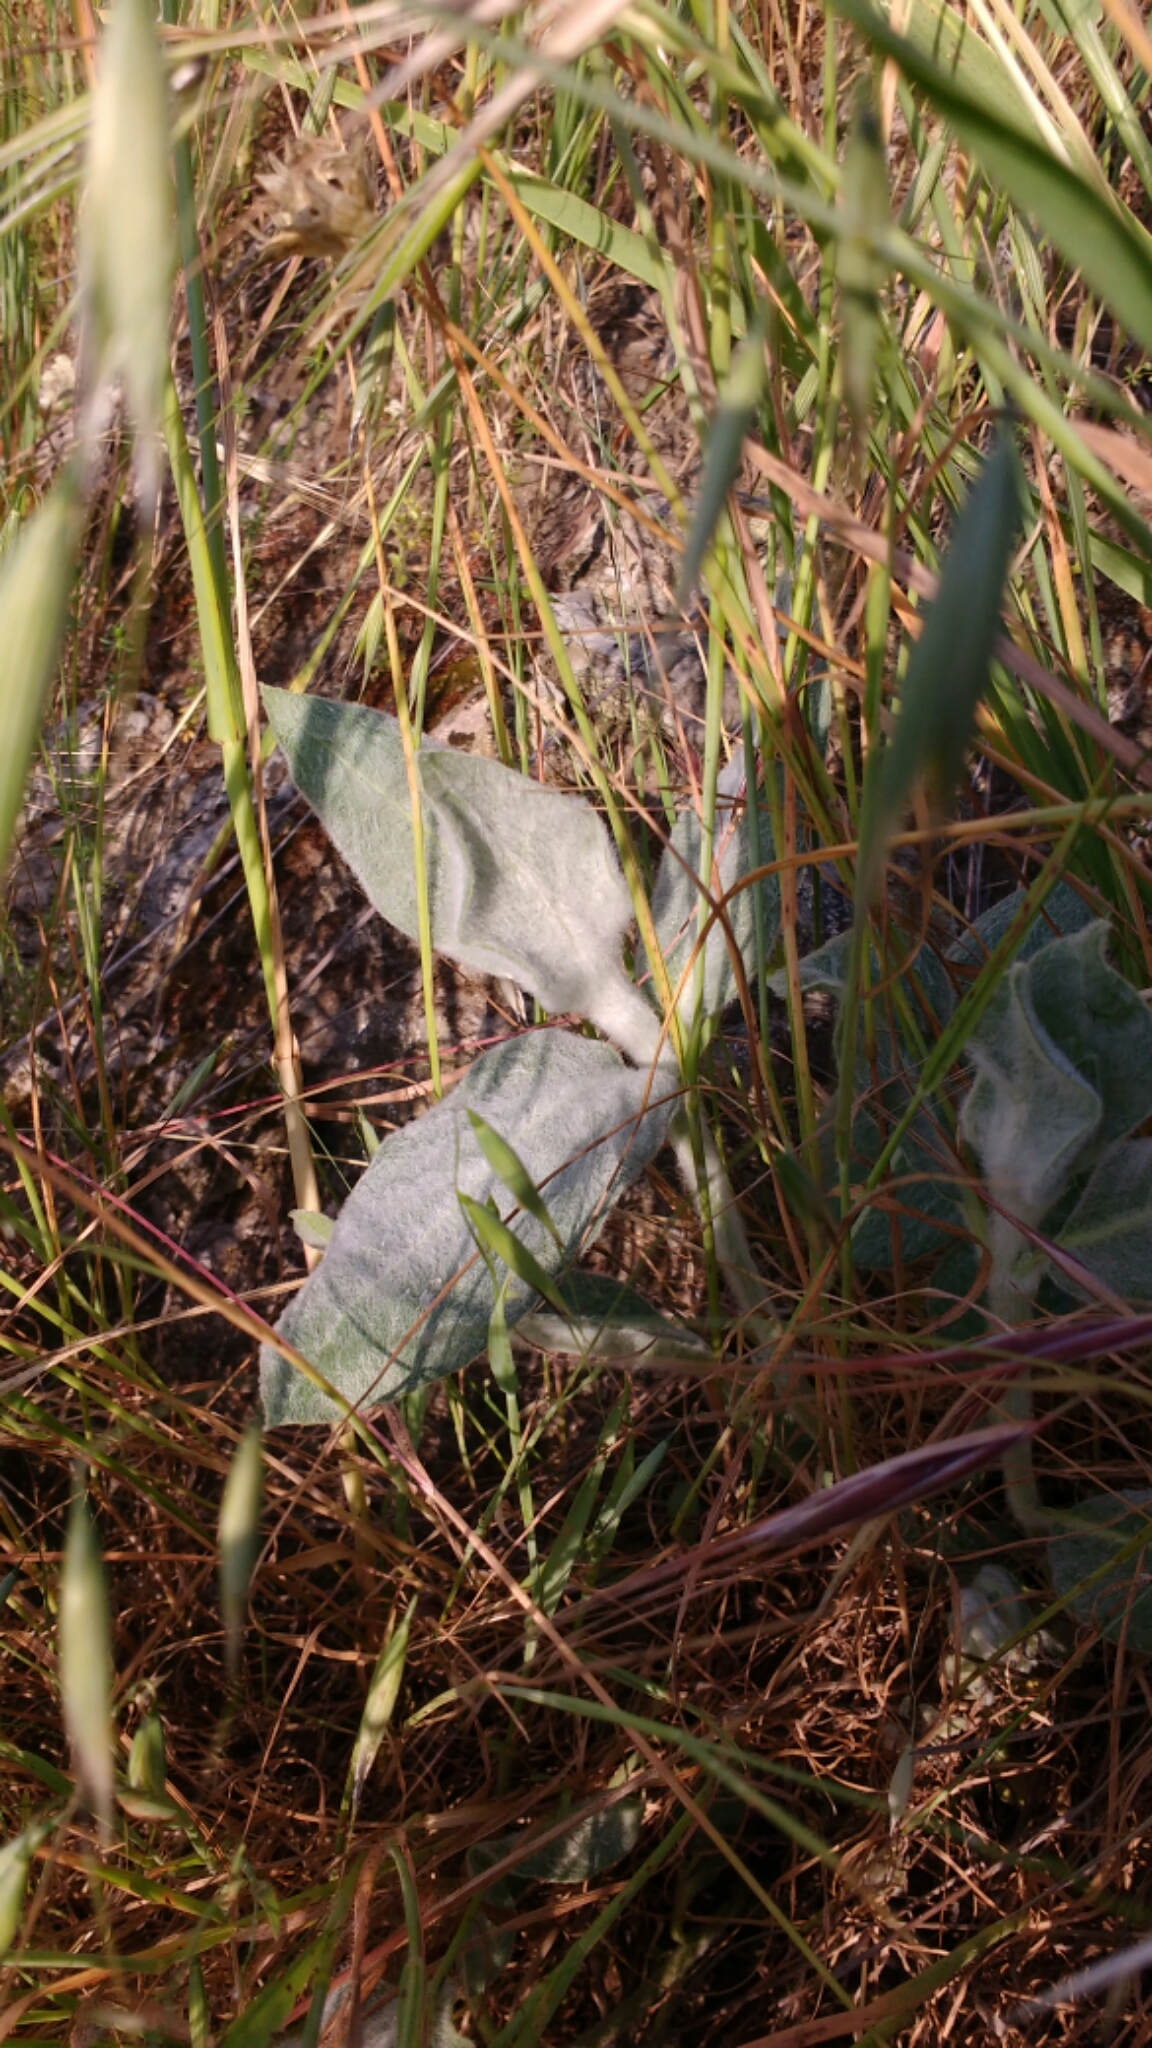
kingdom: Plantae
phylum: Tracheophyta
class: Magnoliopsida
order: Gentianales
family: Apocynaceae
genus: Asclepias
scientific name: Asclepias californica
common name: California milkweed
